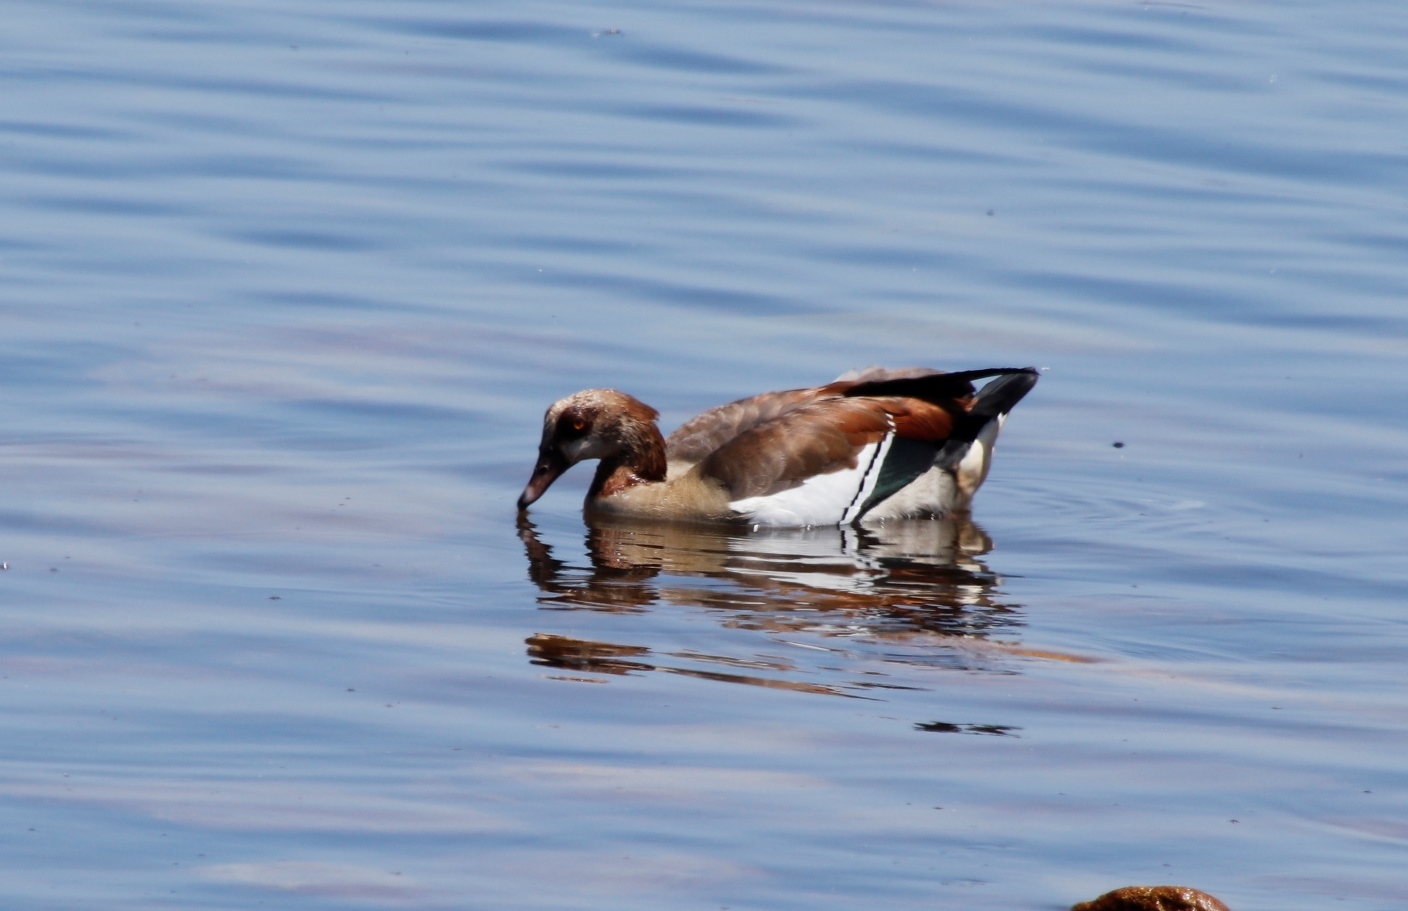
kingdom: Animalia
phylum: Chordata
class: Aves
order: Anseriformes
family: Anatidae
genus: Alopochen
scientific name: Alopochen aegyptiaca
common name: Egyptian goose
